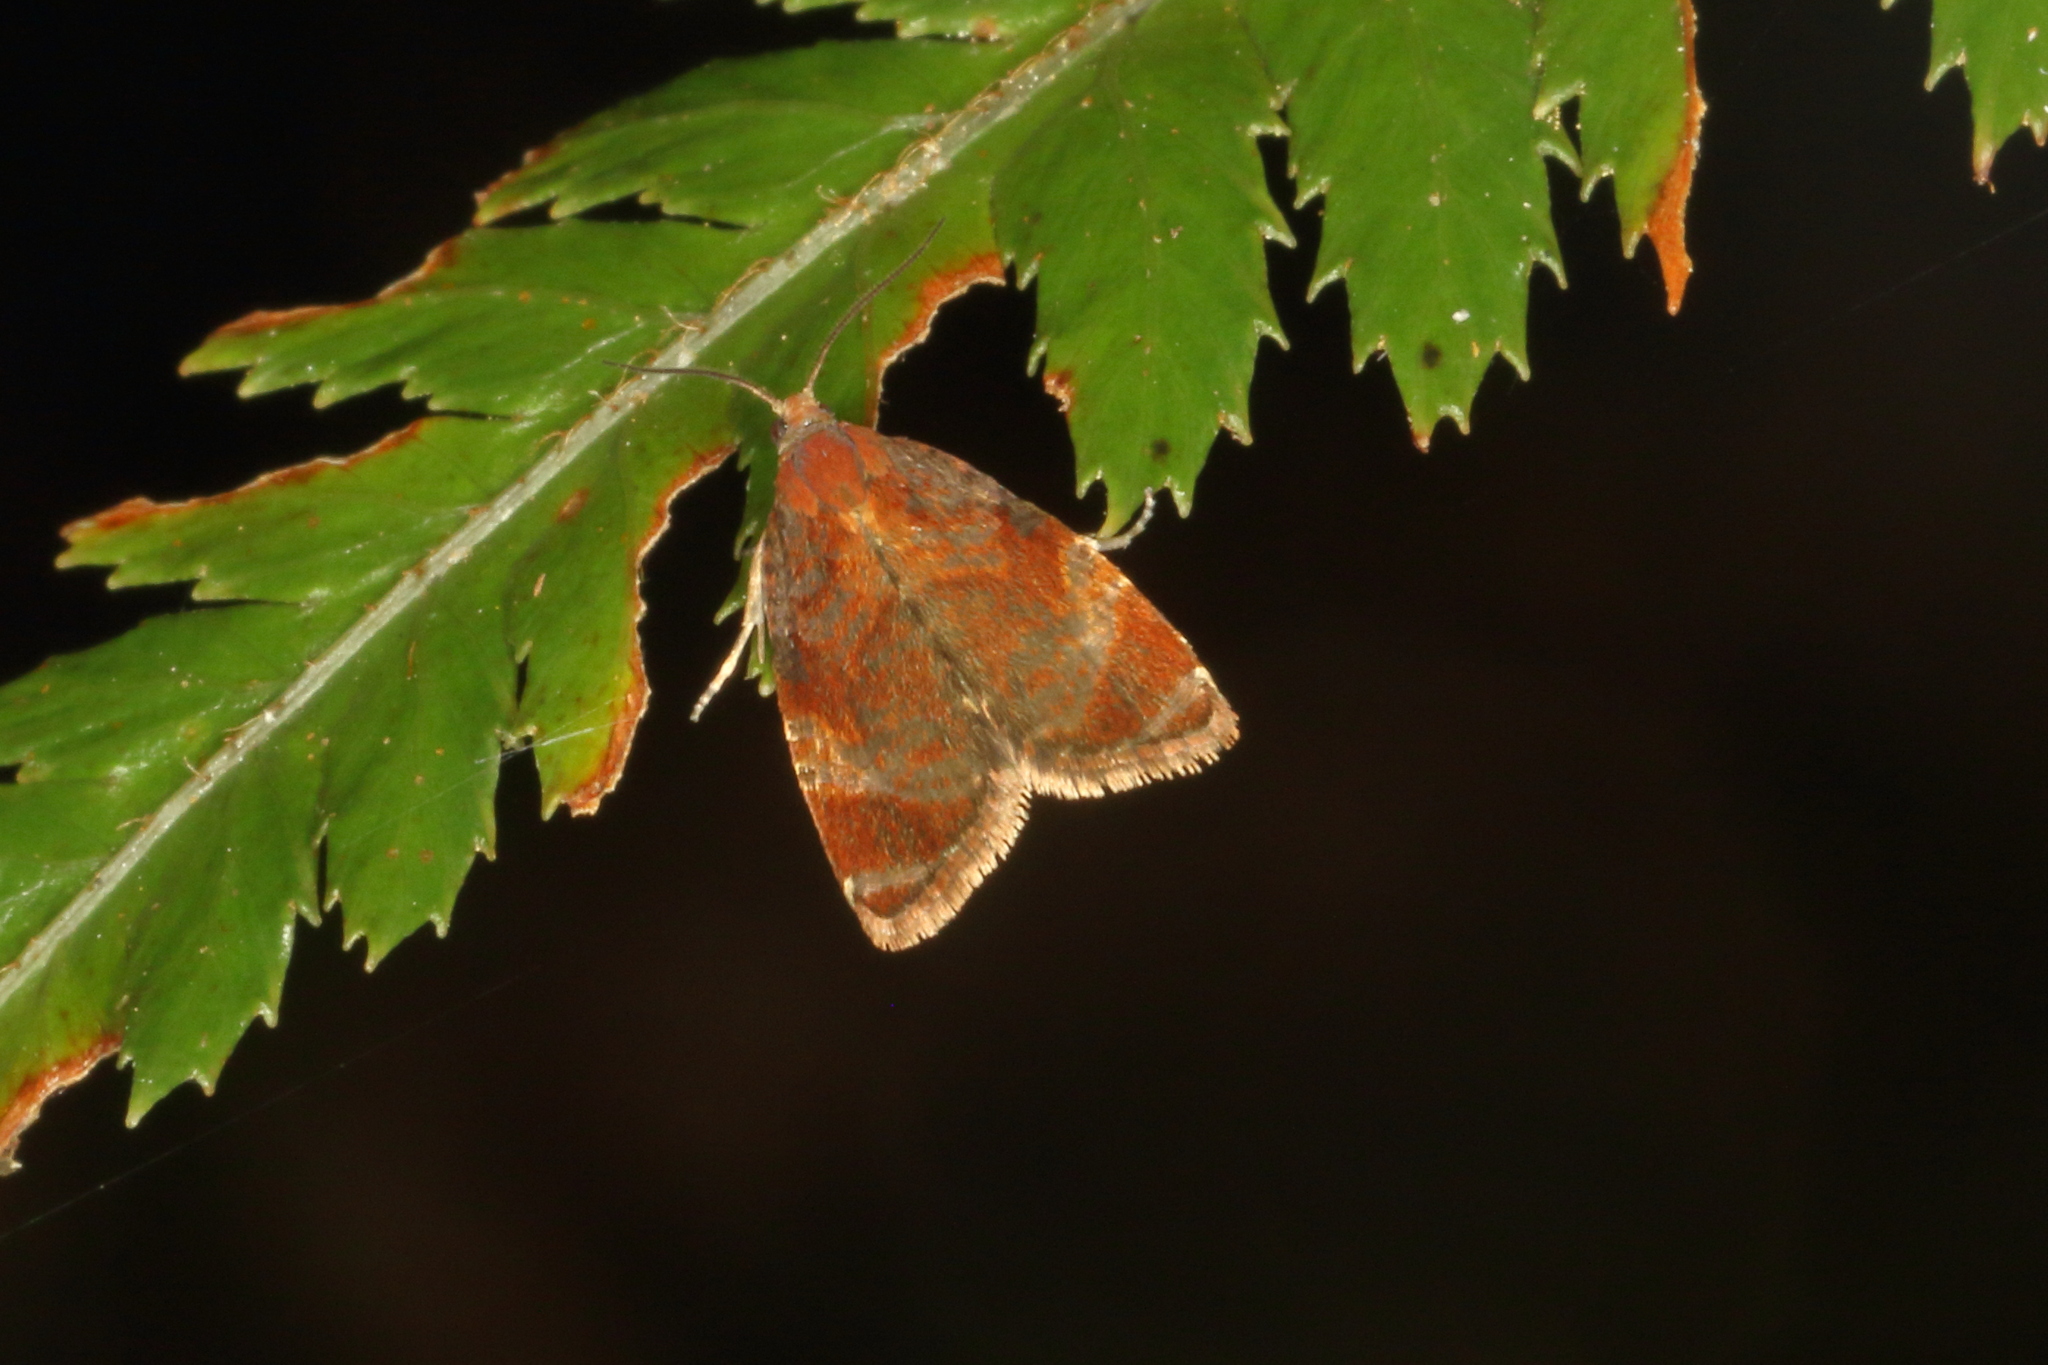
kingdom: Animalia
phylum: Arthropoda
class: Insecta
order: Lepidoptera
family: Tortricidae
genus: Tortrix
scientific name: Tortrix
